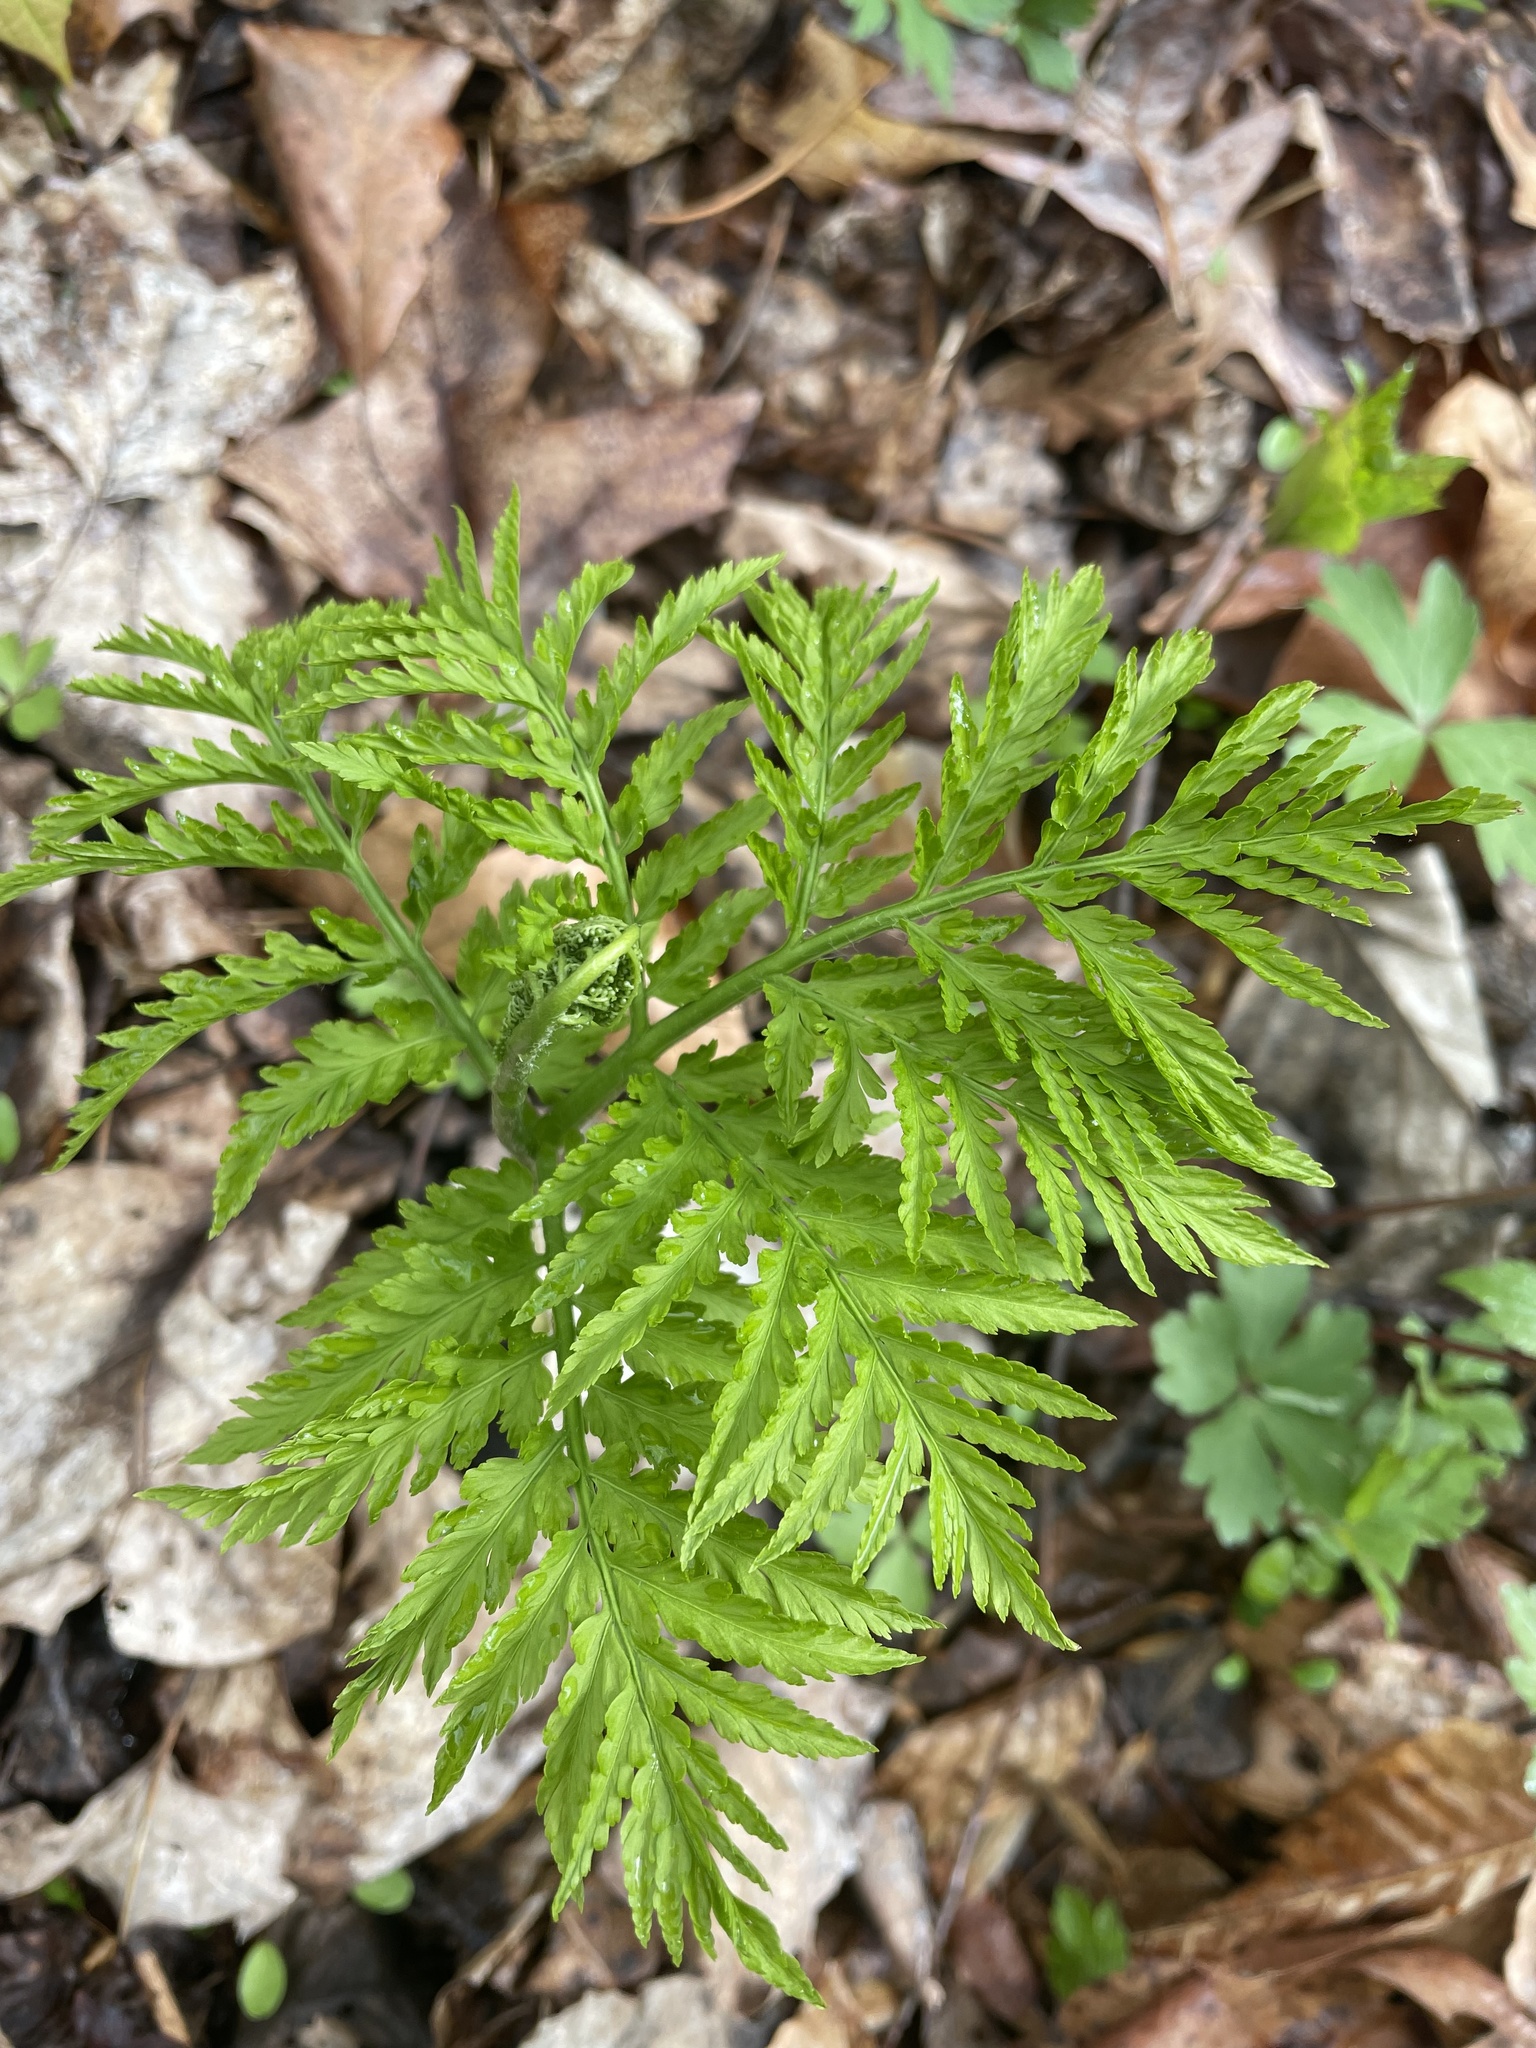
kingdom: Plantae
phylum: Tracheophyta
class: Polypodiopsida
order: Ophioglossales
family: Ophioglossaceae
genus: Botrypus
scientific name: Botrypus virginianus
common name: Common grapefern
